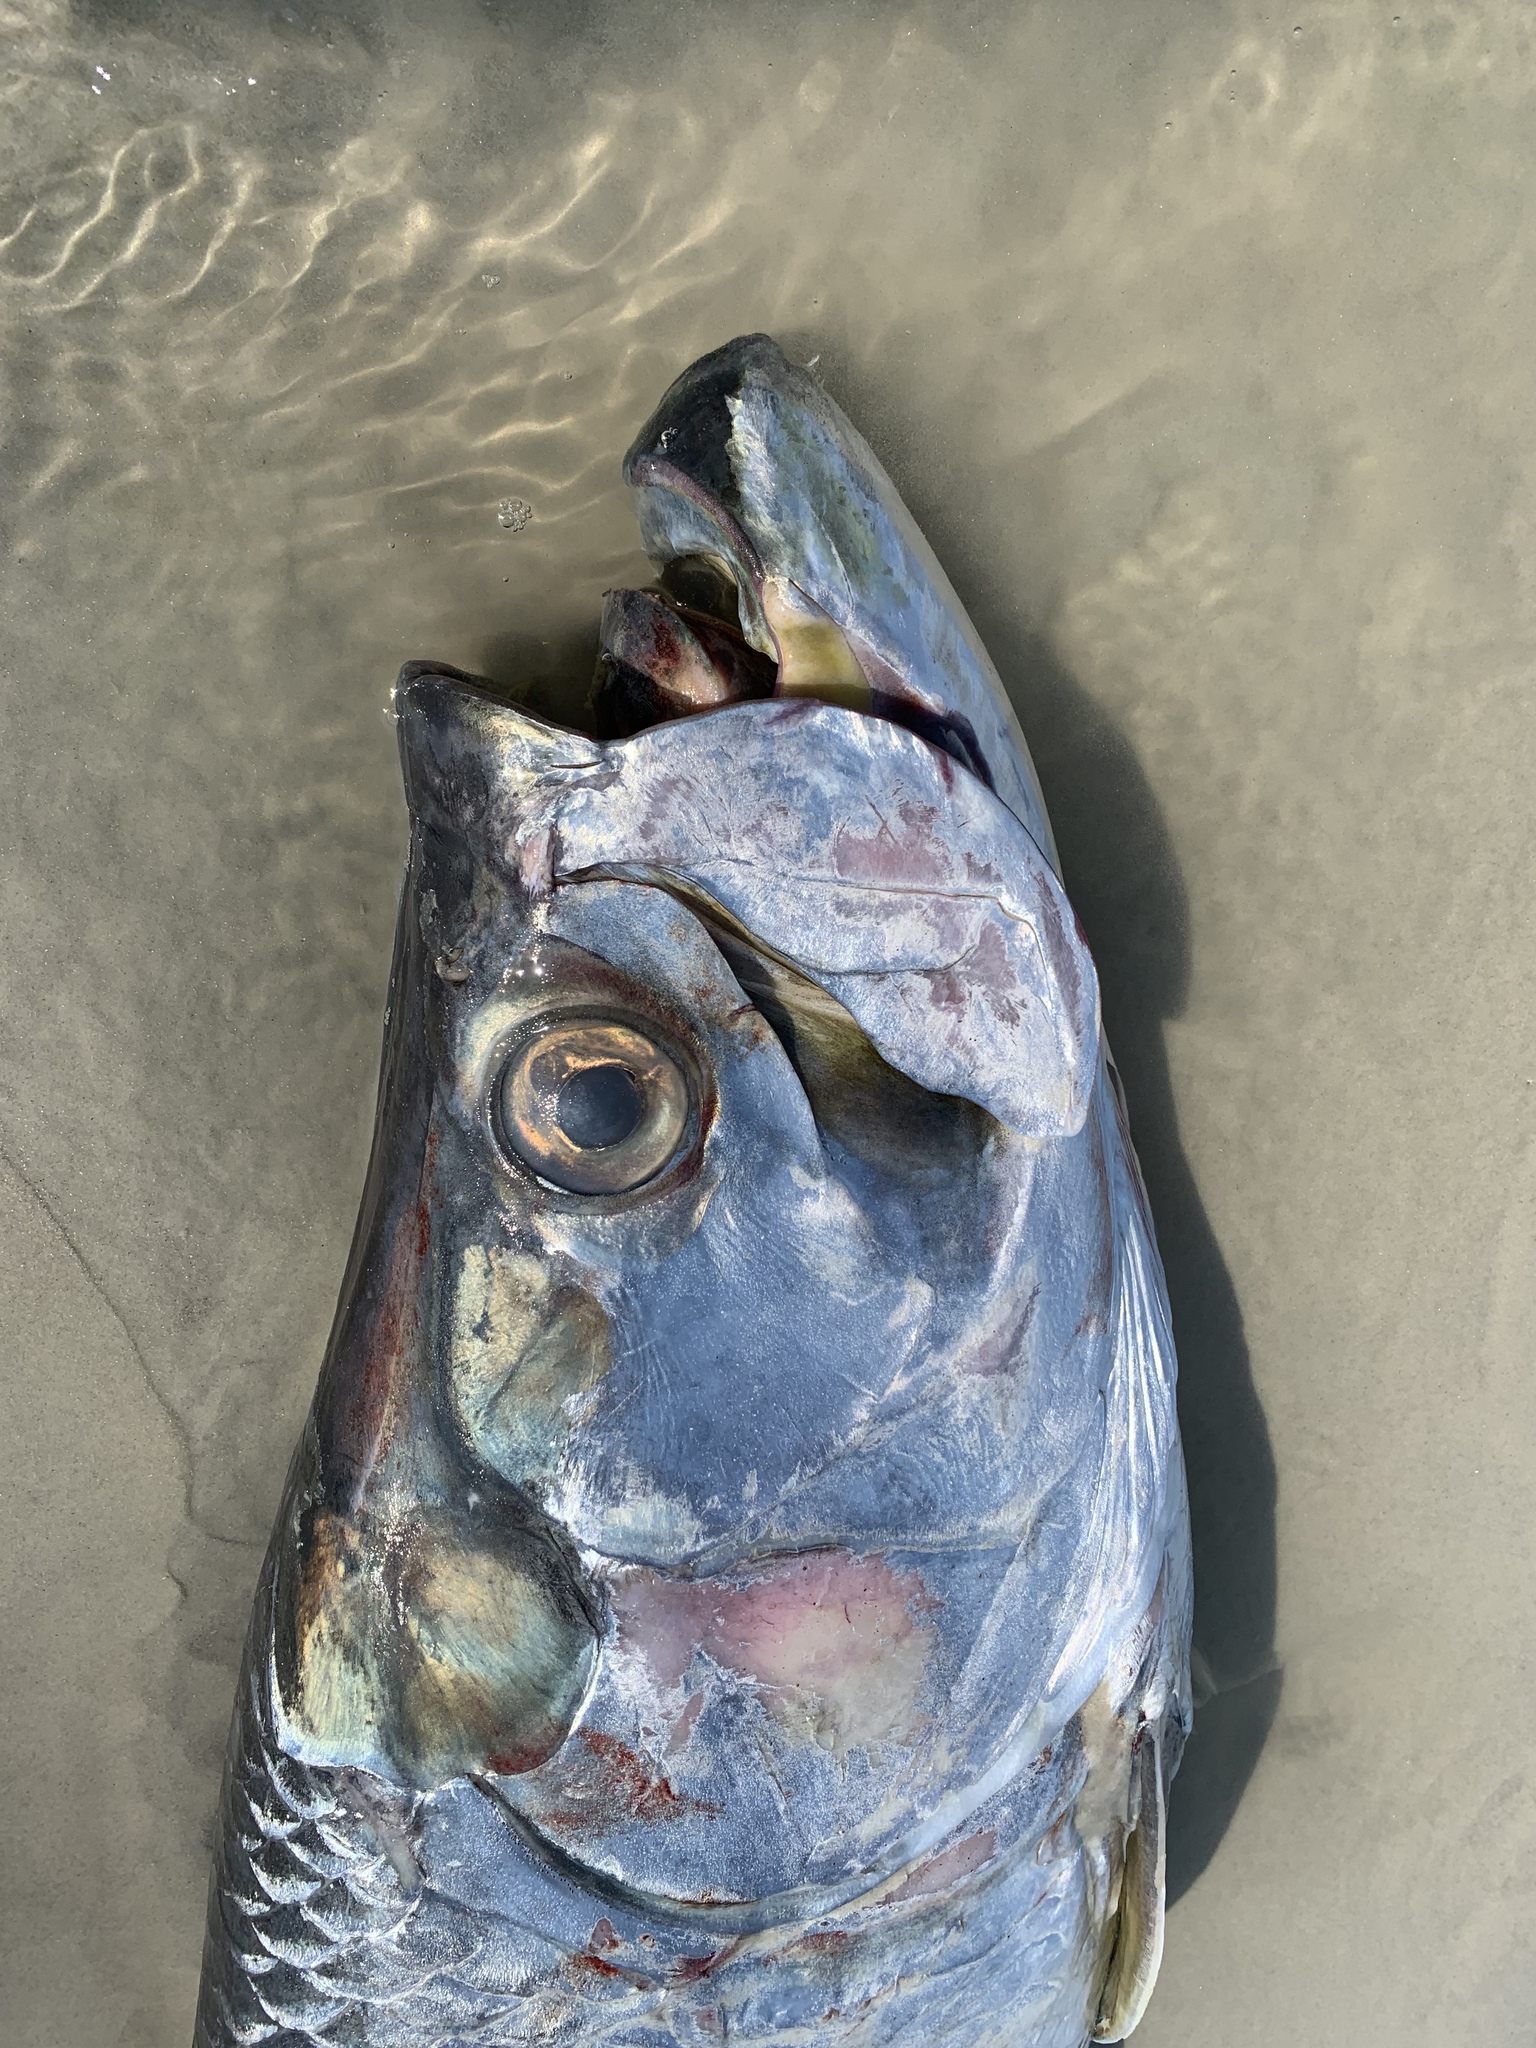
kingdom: Animalia
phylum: Chordata
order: Elopiformes
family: Megalopidae
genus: Megalops
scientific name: Megalops atlanticus
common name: Tarpon
